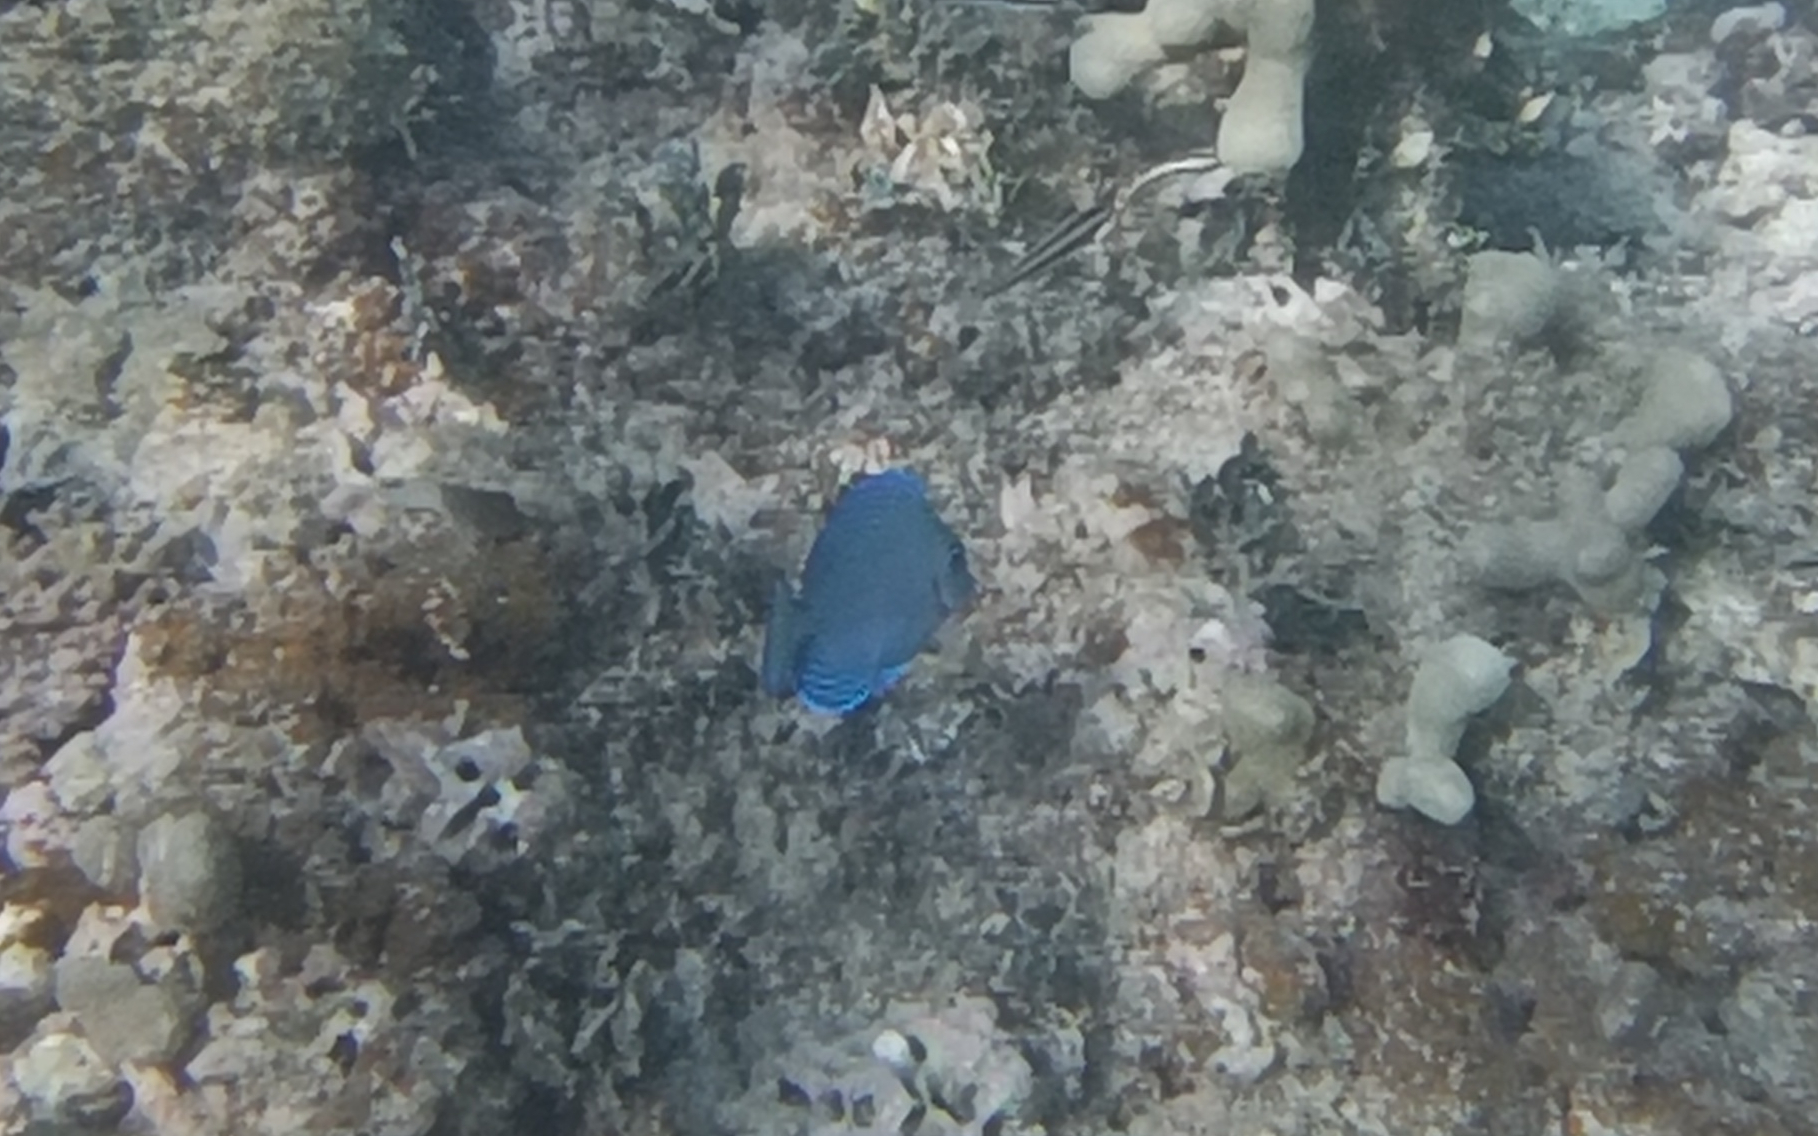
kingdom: Animalia
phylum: Chordata
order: Perciformes
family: Acanthuridae
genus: Acanthurus
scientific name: Acanthurus coeruleus
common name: Blue tang
